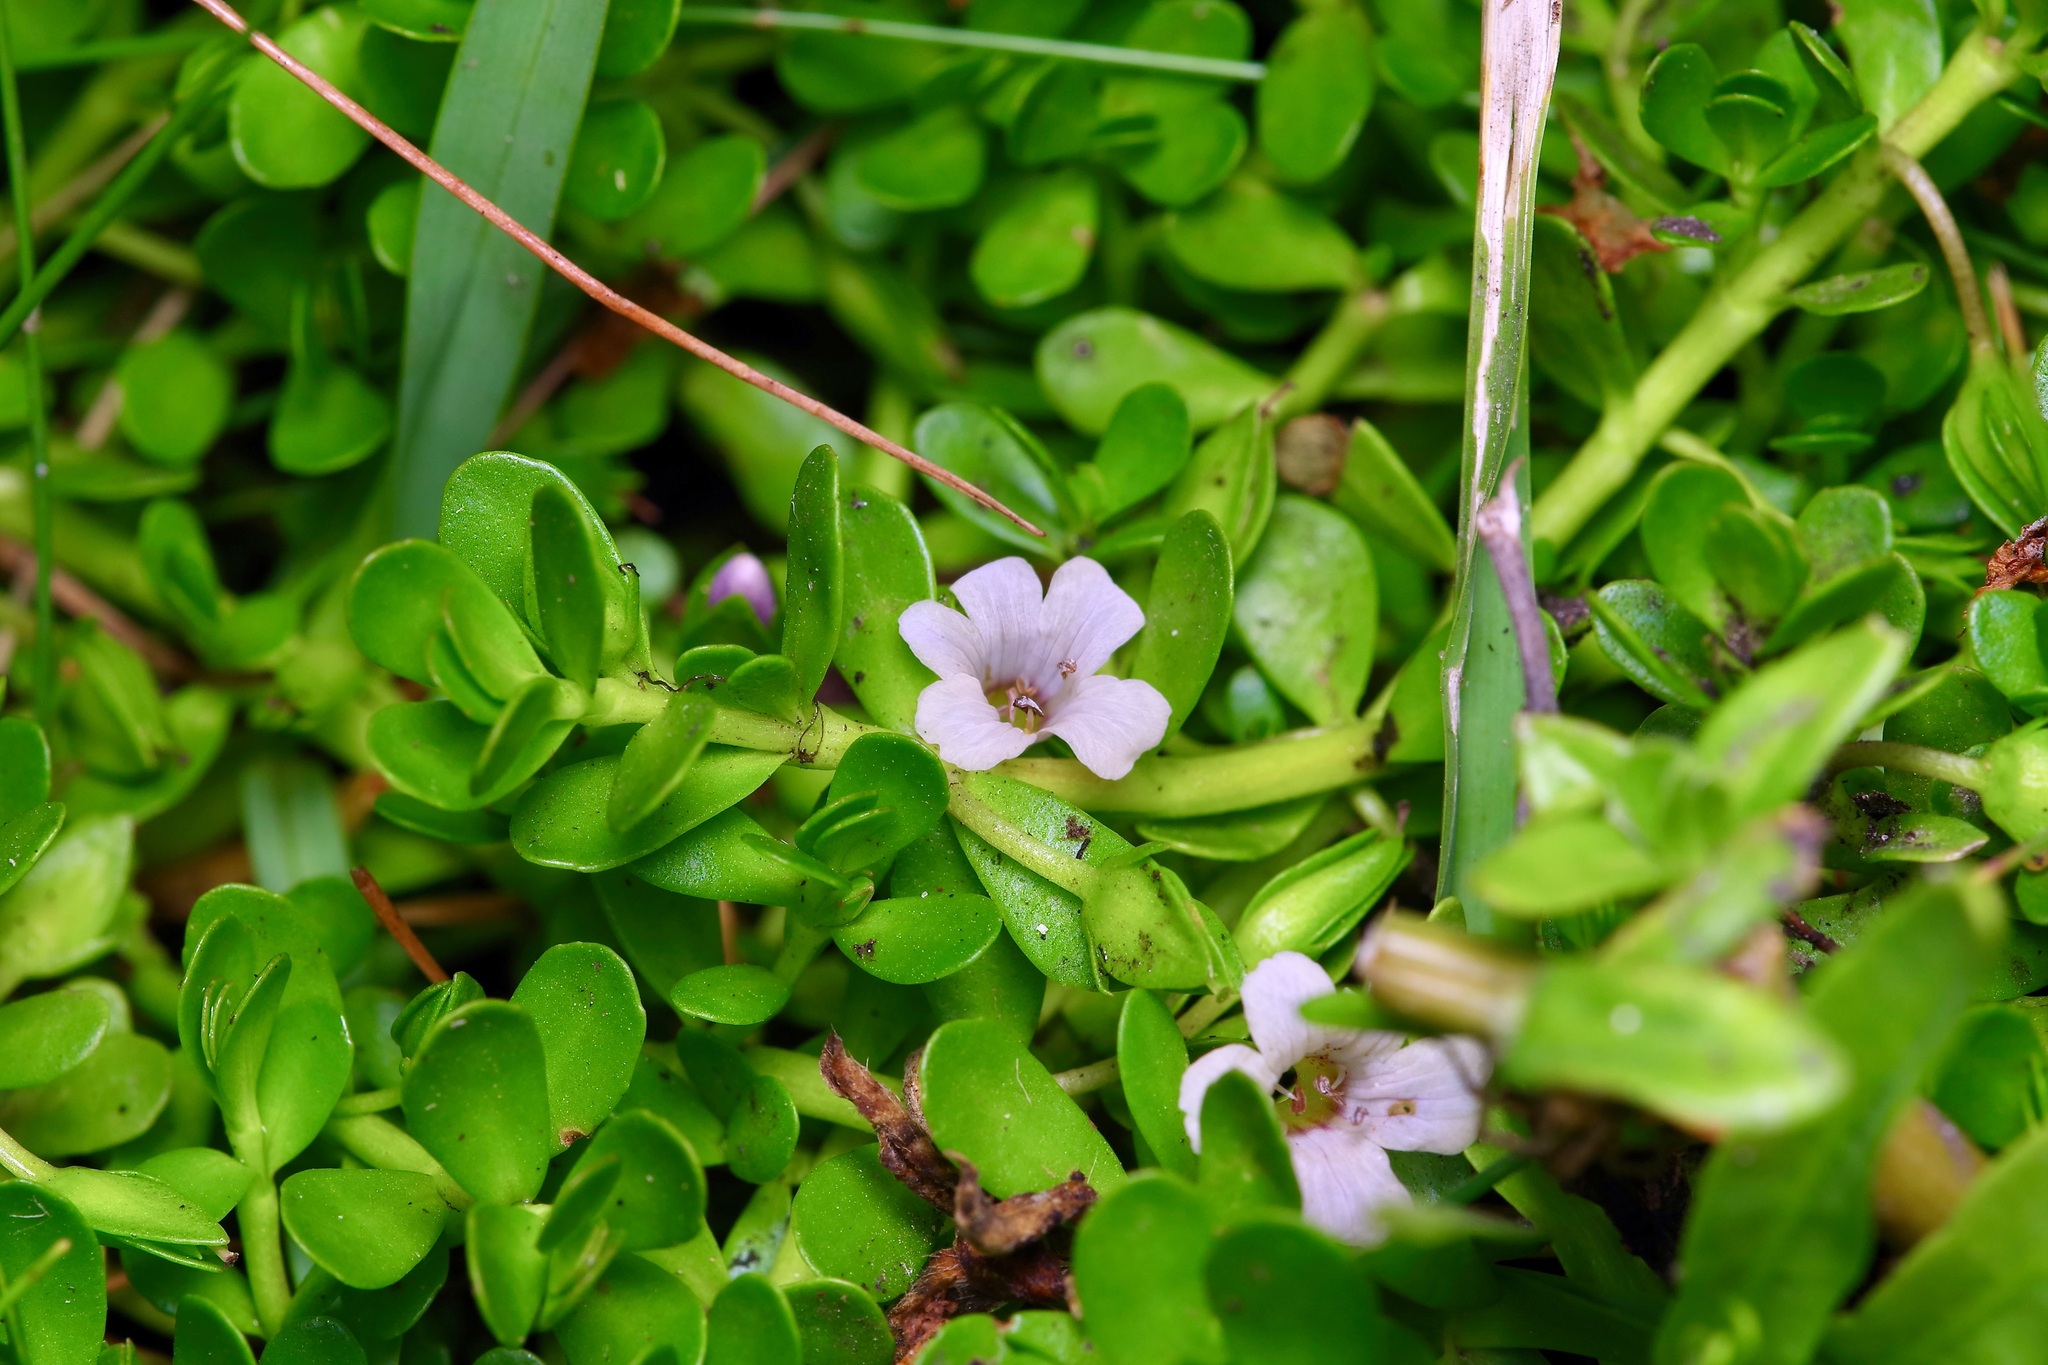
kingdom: Plantae
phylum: Tracheophyta
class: Magnoliopsida
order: Lamiales
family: Plantaginaceae
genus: Bacopa
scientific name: Bacopa monnieri
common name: Indian-pennywort
